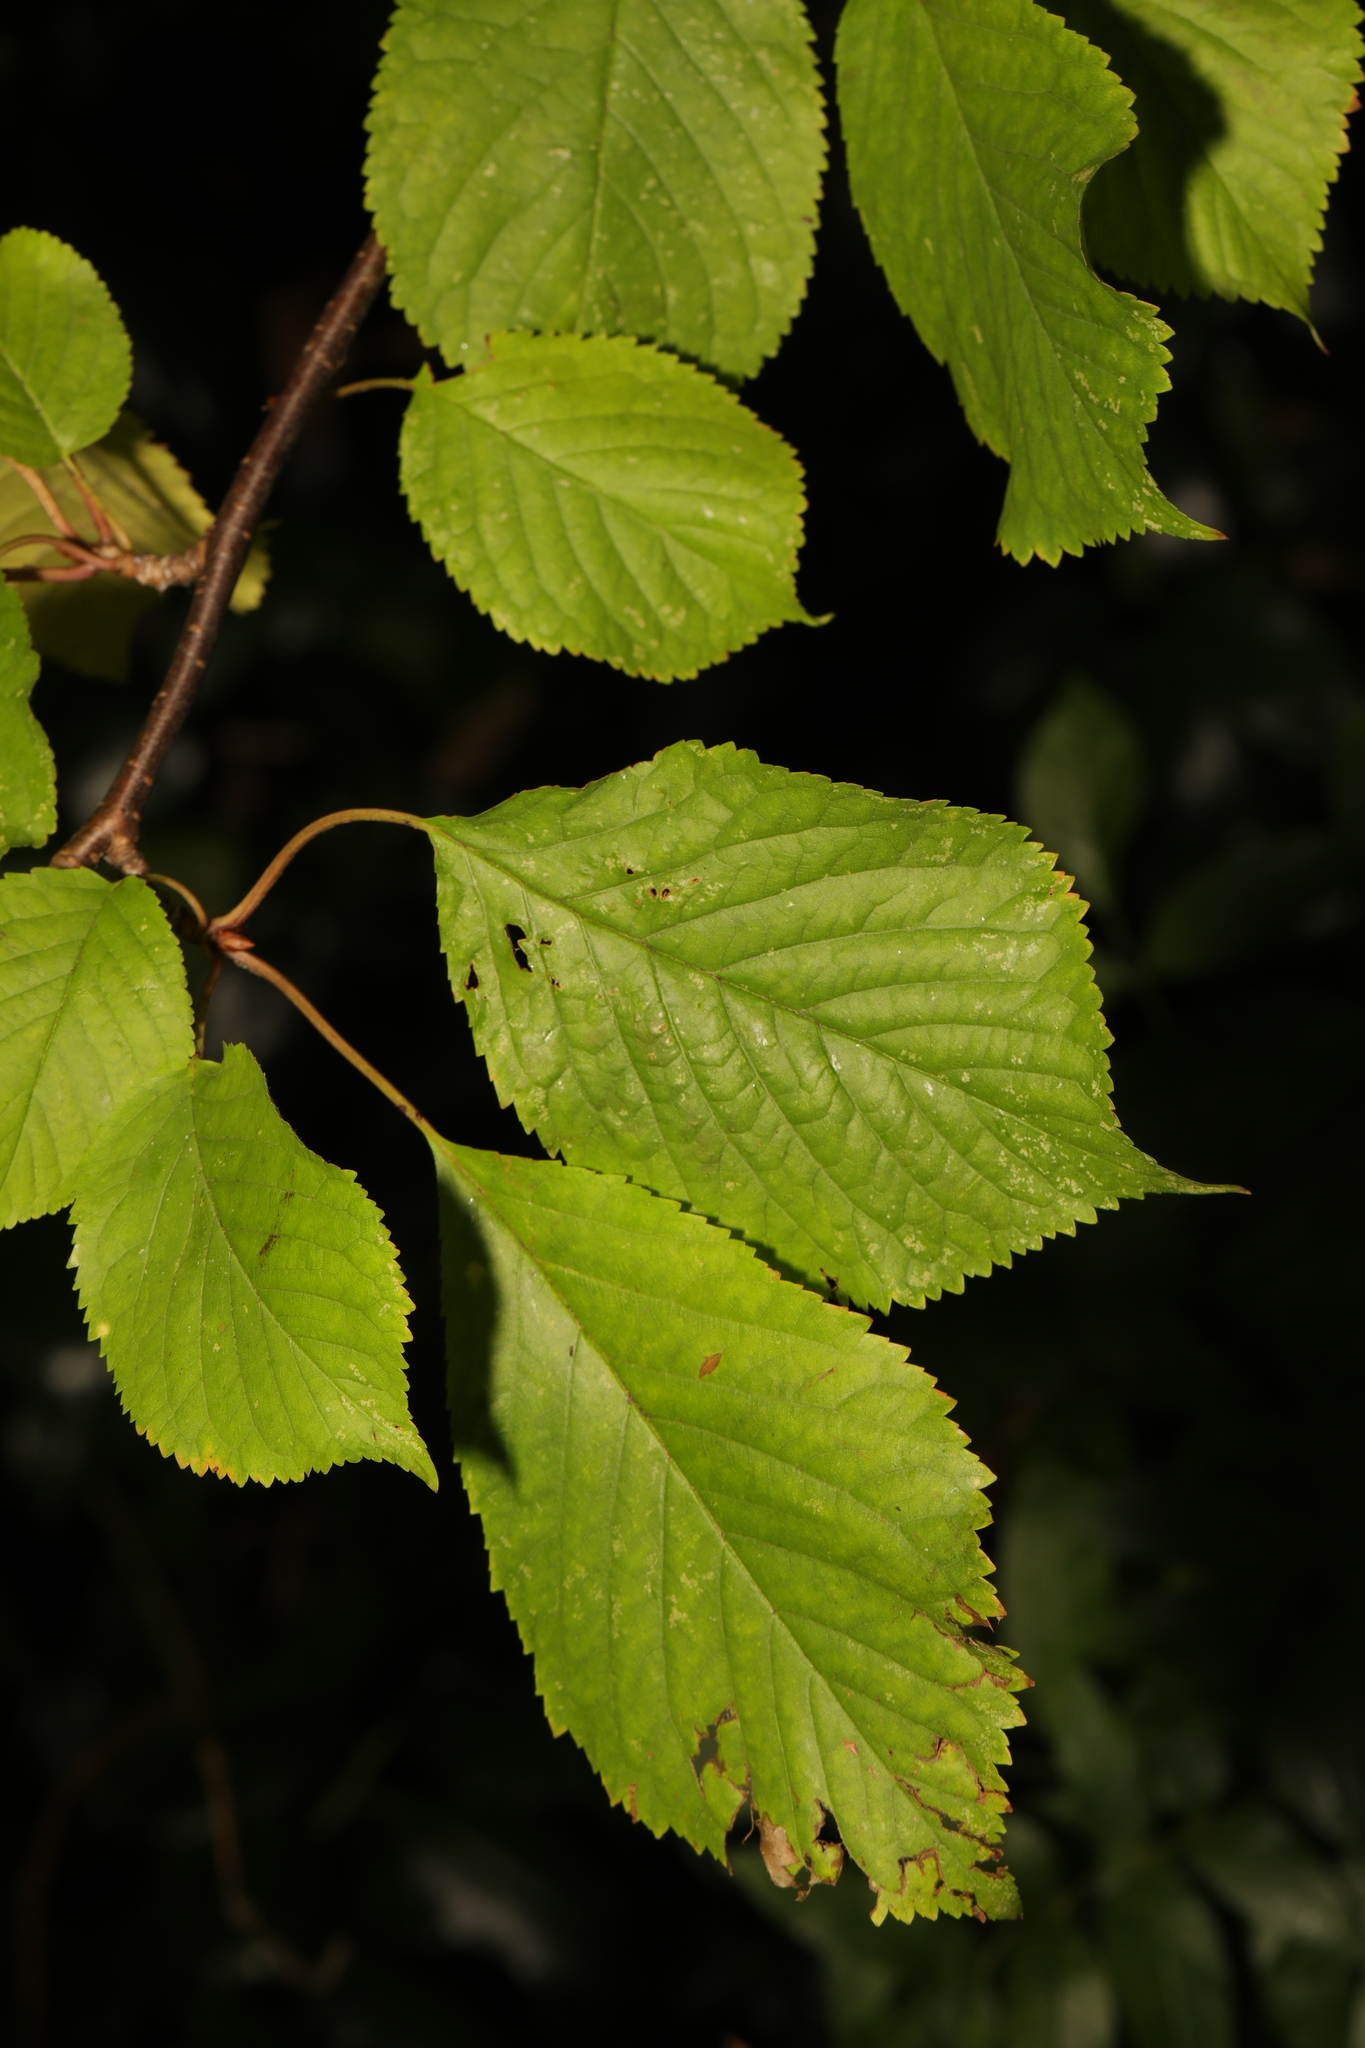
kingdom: Plantae
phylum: Tracheophyta
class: Magnoliopsida
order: Rosales
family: Rosaceae
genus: Prunus
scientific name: Prunus avium
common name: Sweet cherry
